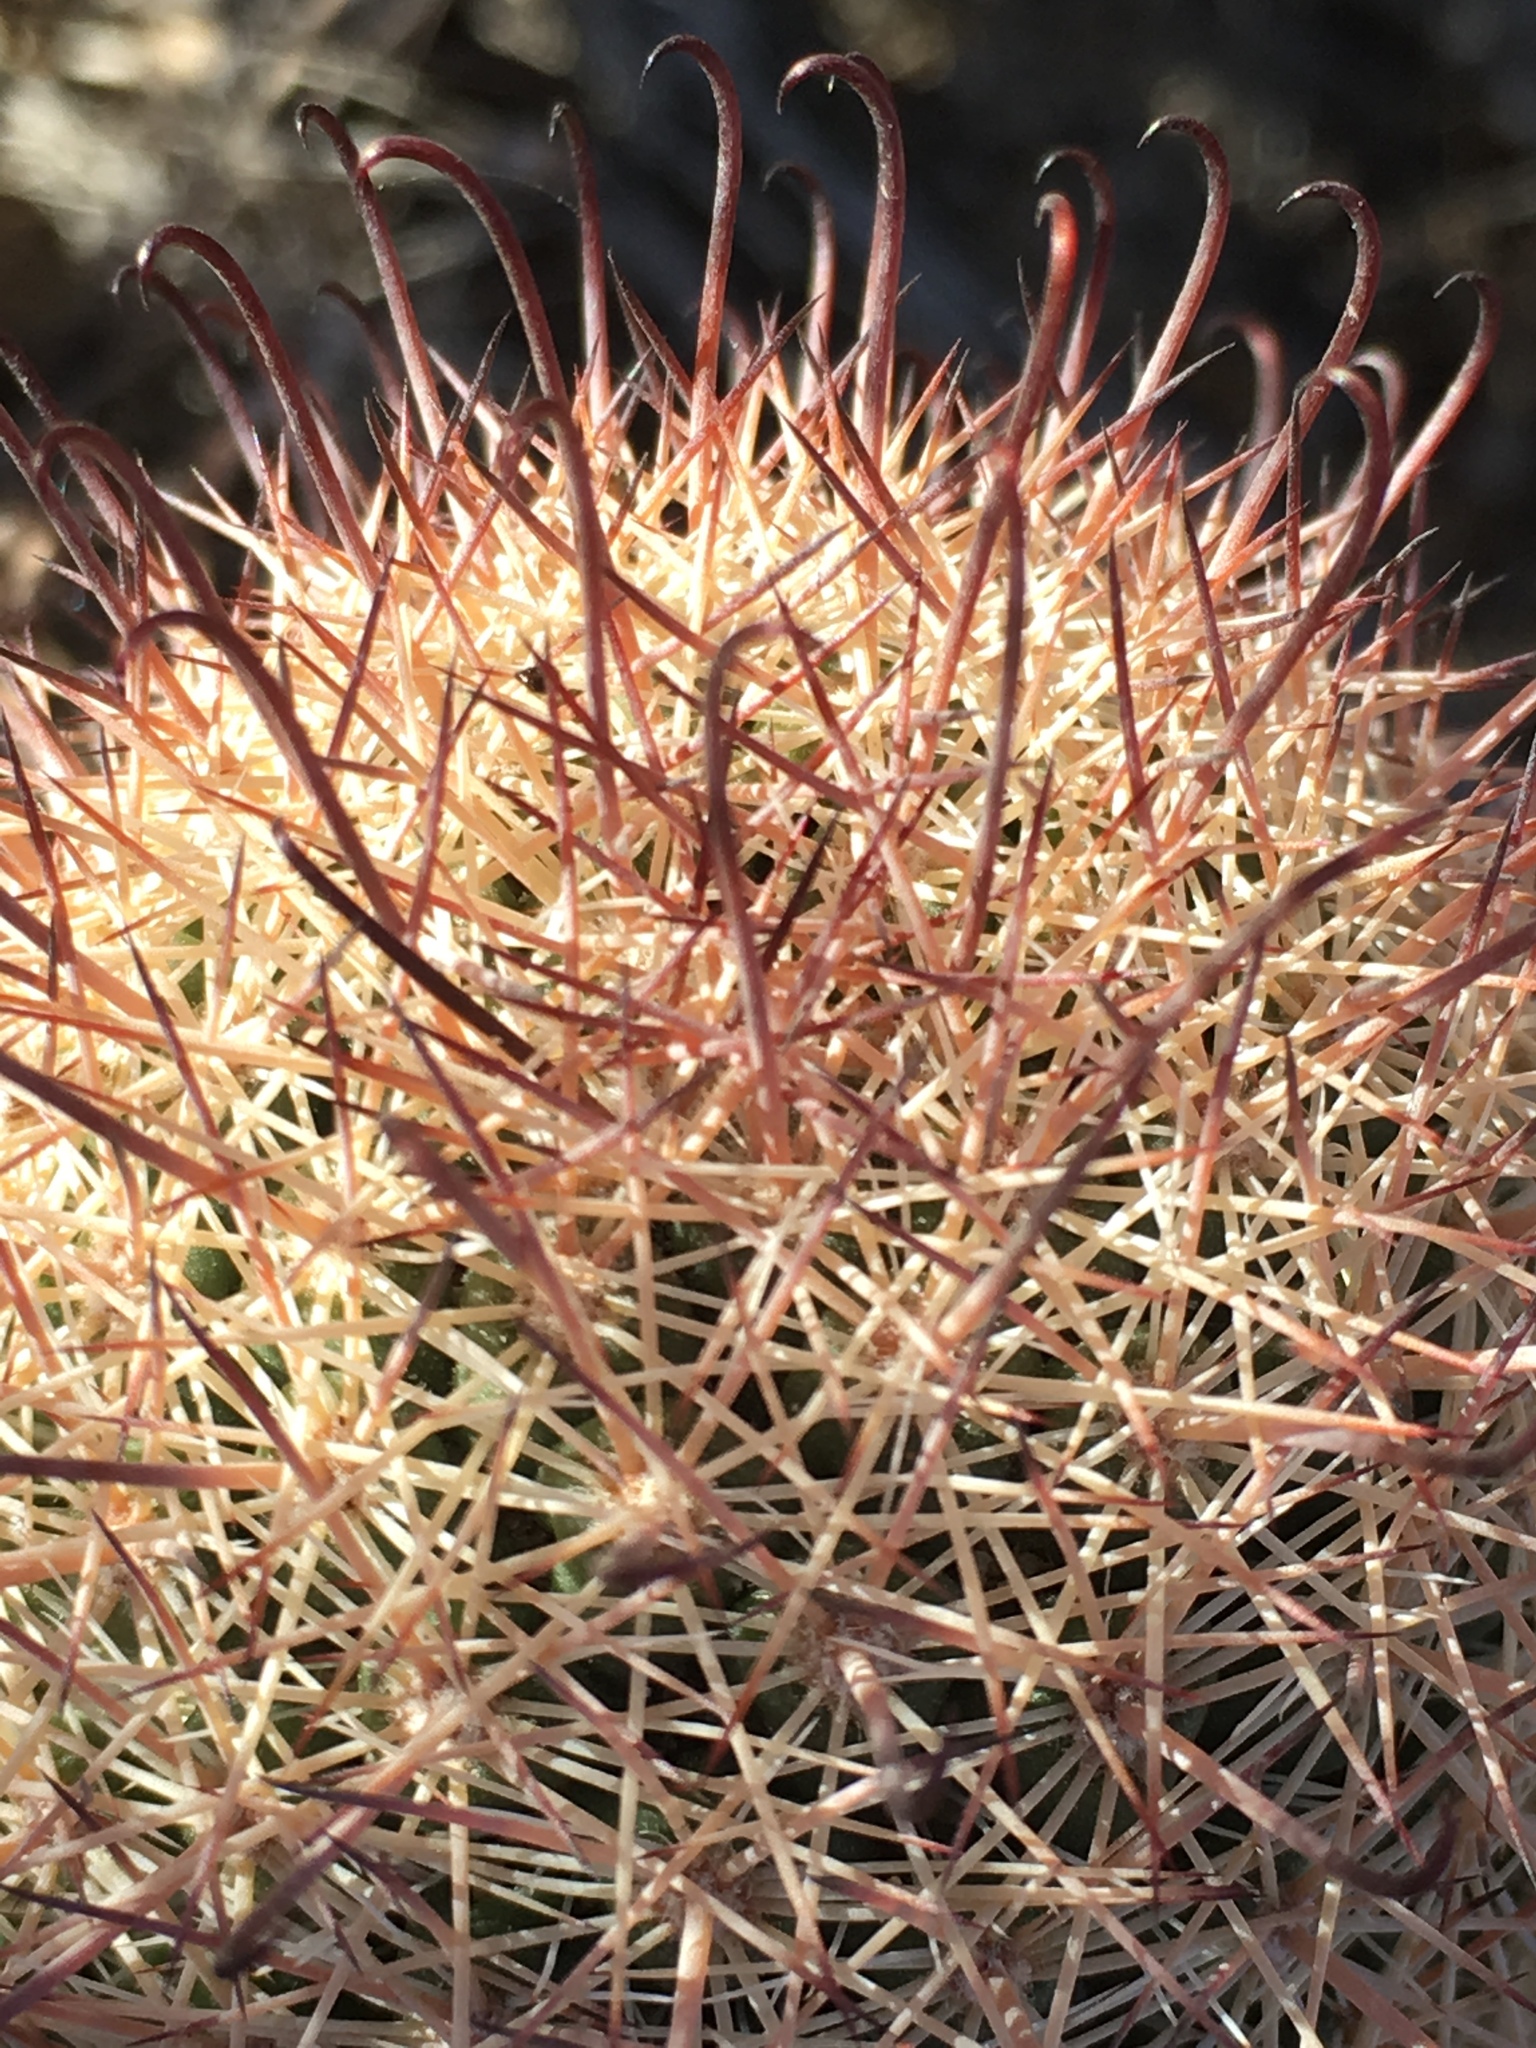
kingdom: Plantae
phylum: Tracheophyta
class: Magnoliopsida
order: Caryophyllales
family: Cactaceae
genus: Cochemiea
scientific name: Cochemiea dioica
